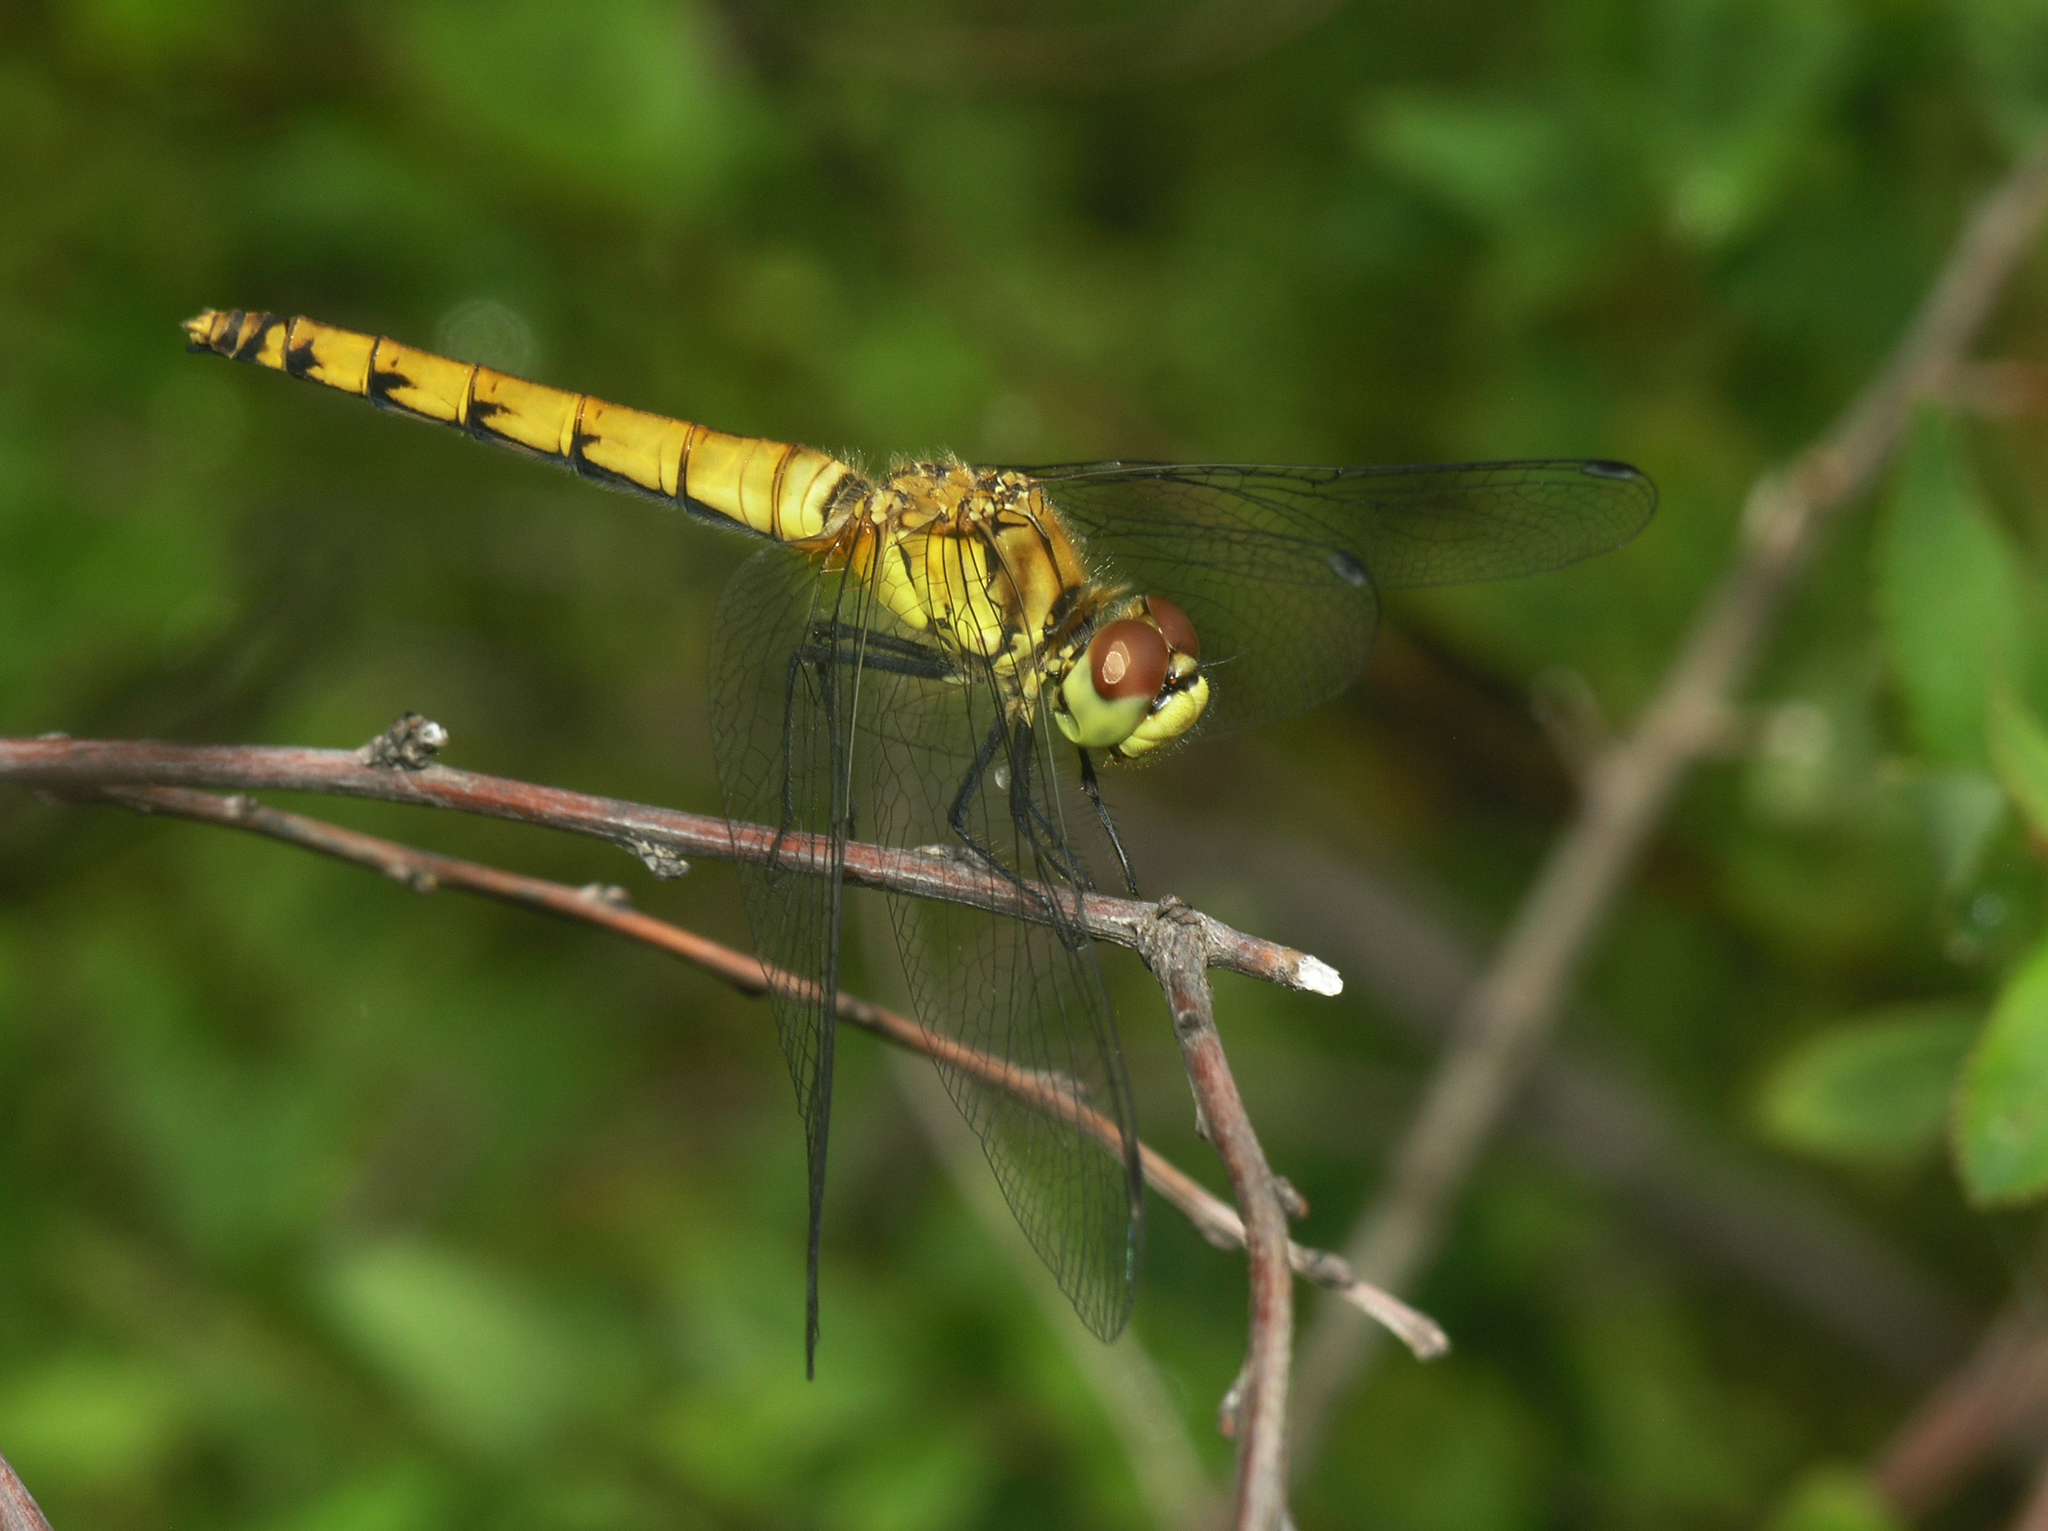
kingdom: Animalia
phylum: Arthropoda
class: Insecta
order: Odonata
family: Libellulidae
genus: Sympetrum
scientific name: Sympetrum cordulegaster
